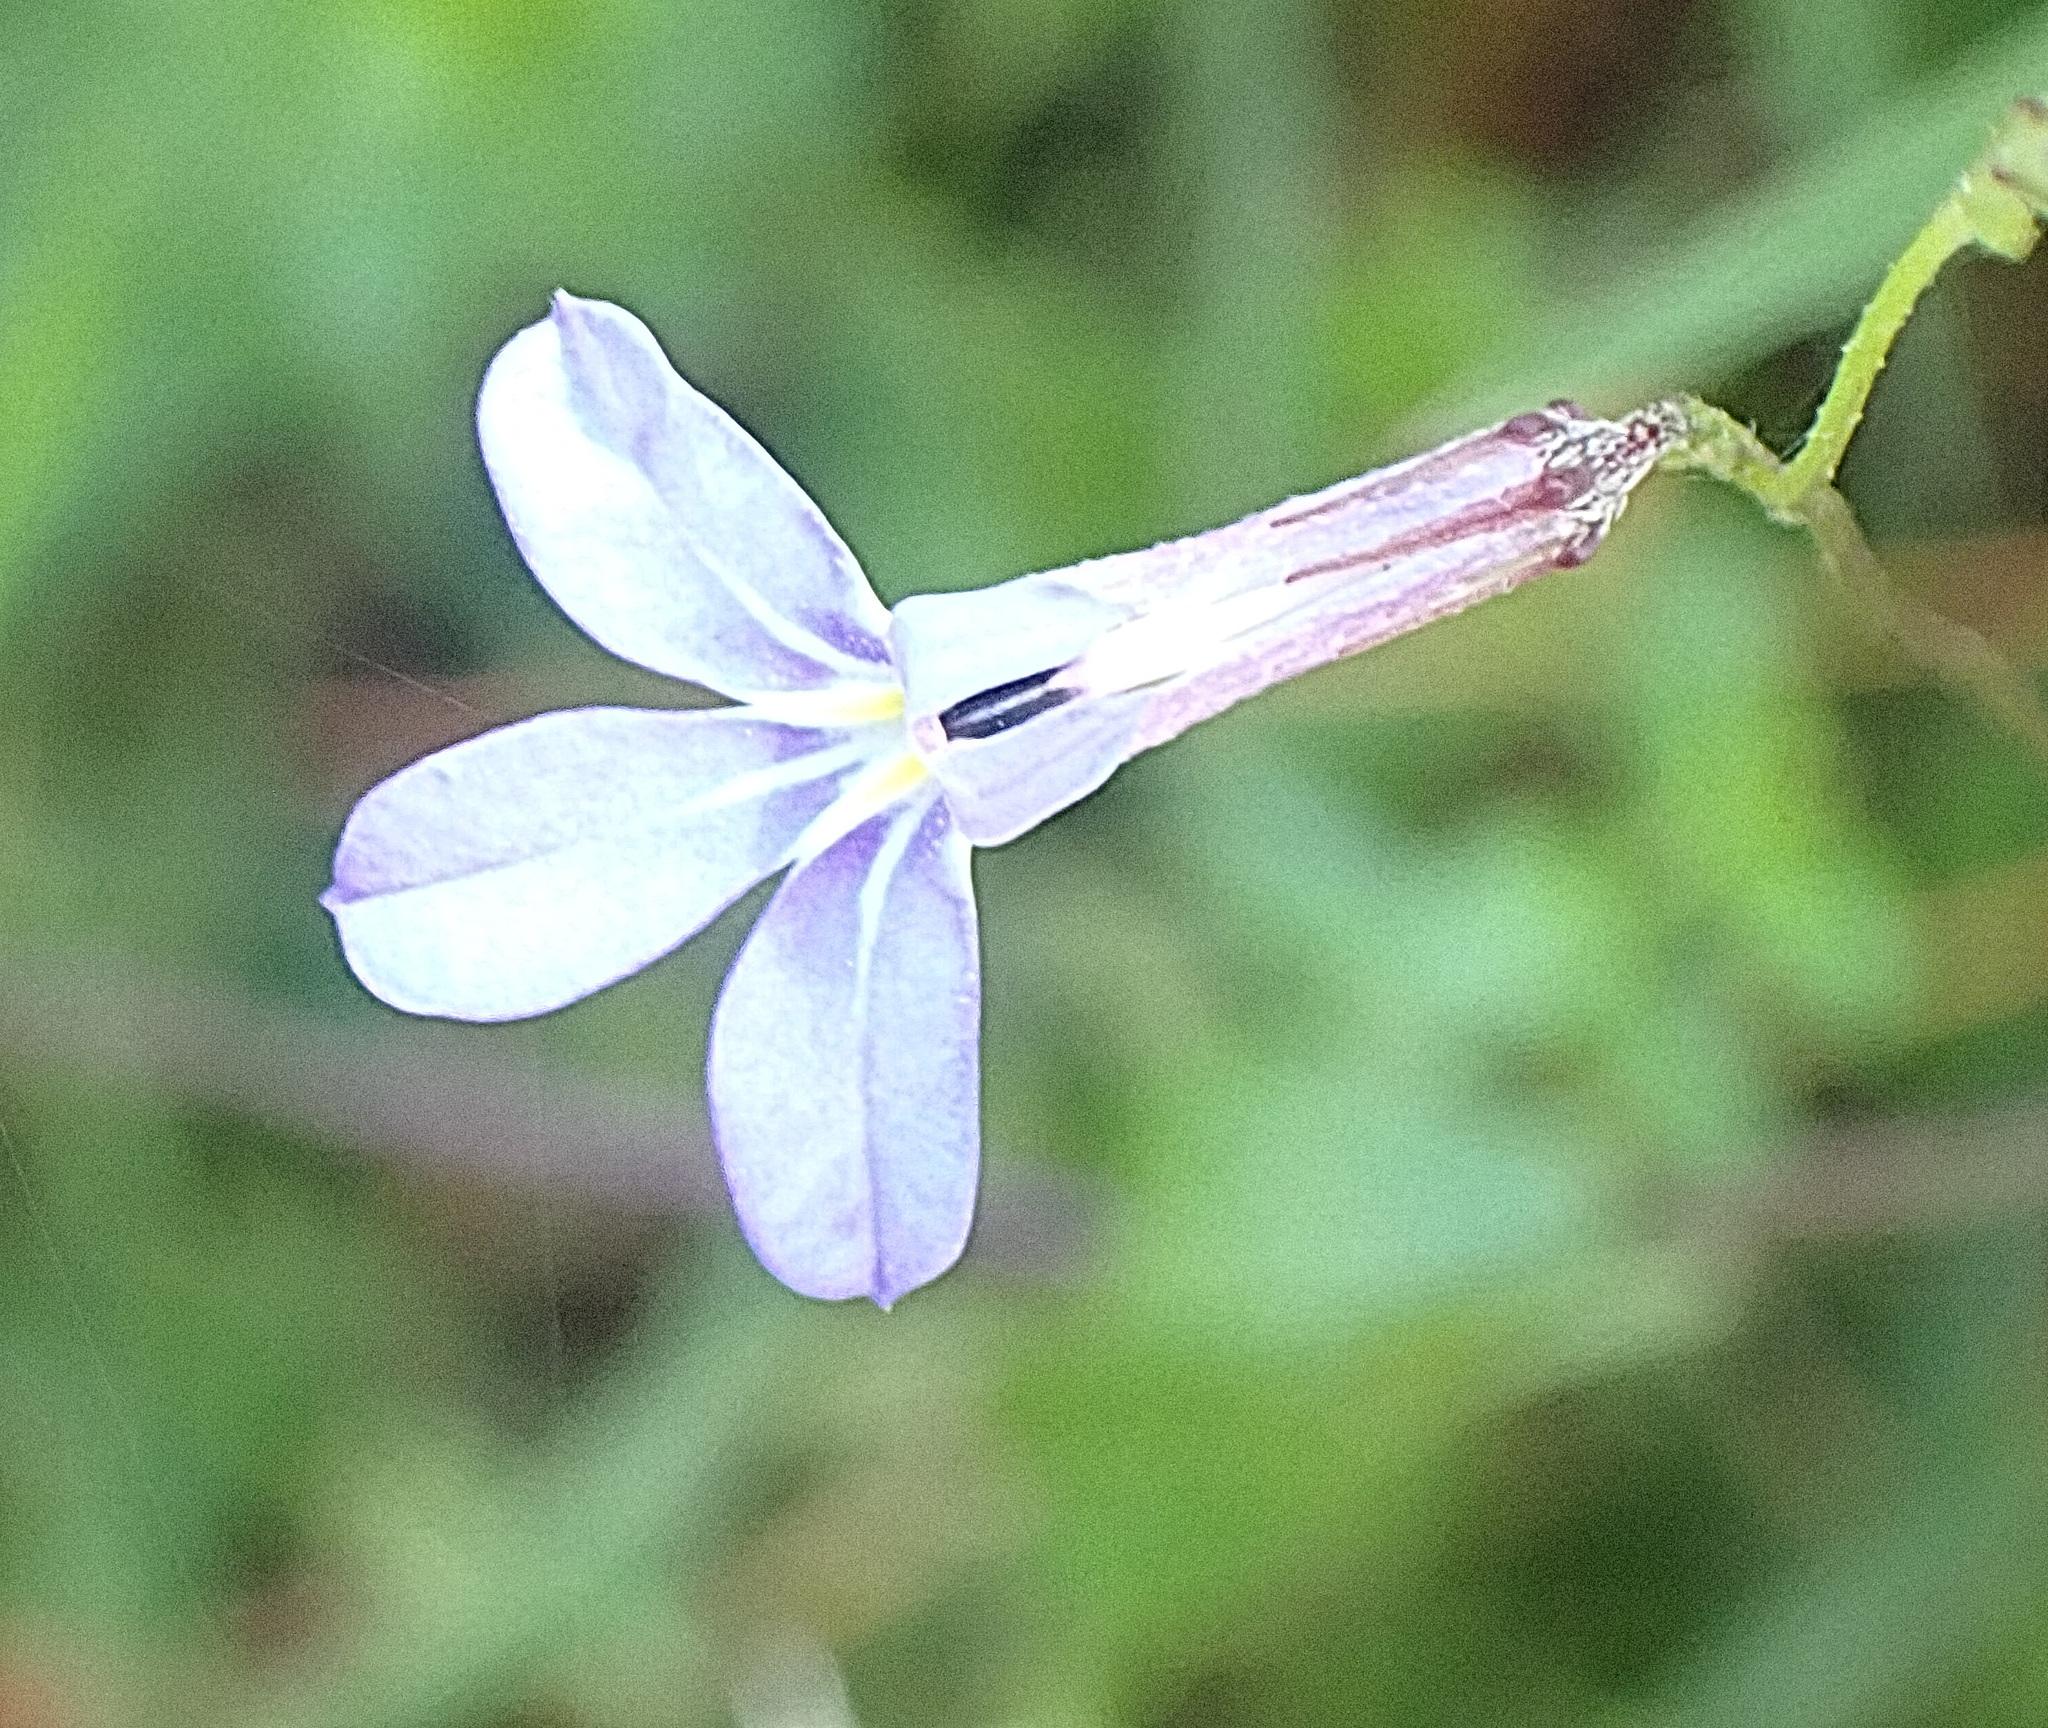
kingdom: Plantae
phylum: Tracheophyta
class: Magnoliopsida
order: Asterales
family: Campanulaceae
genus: Lobelia
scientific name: Lobelia neglecta
